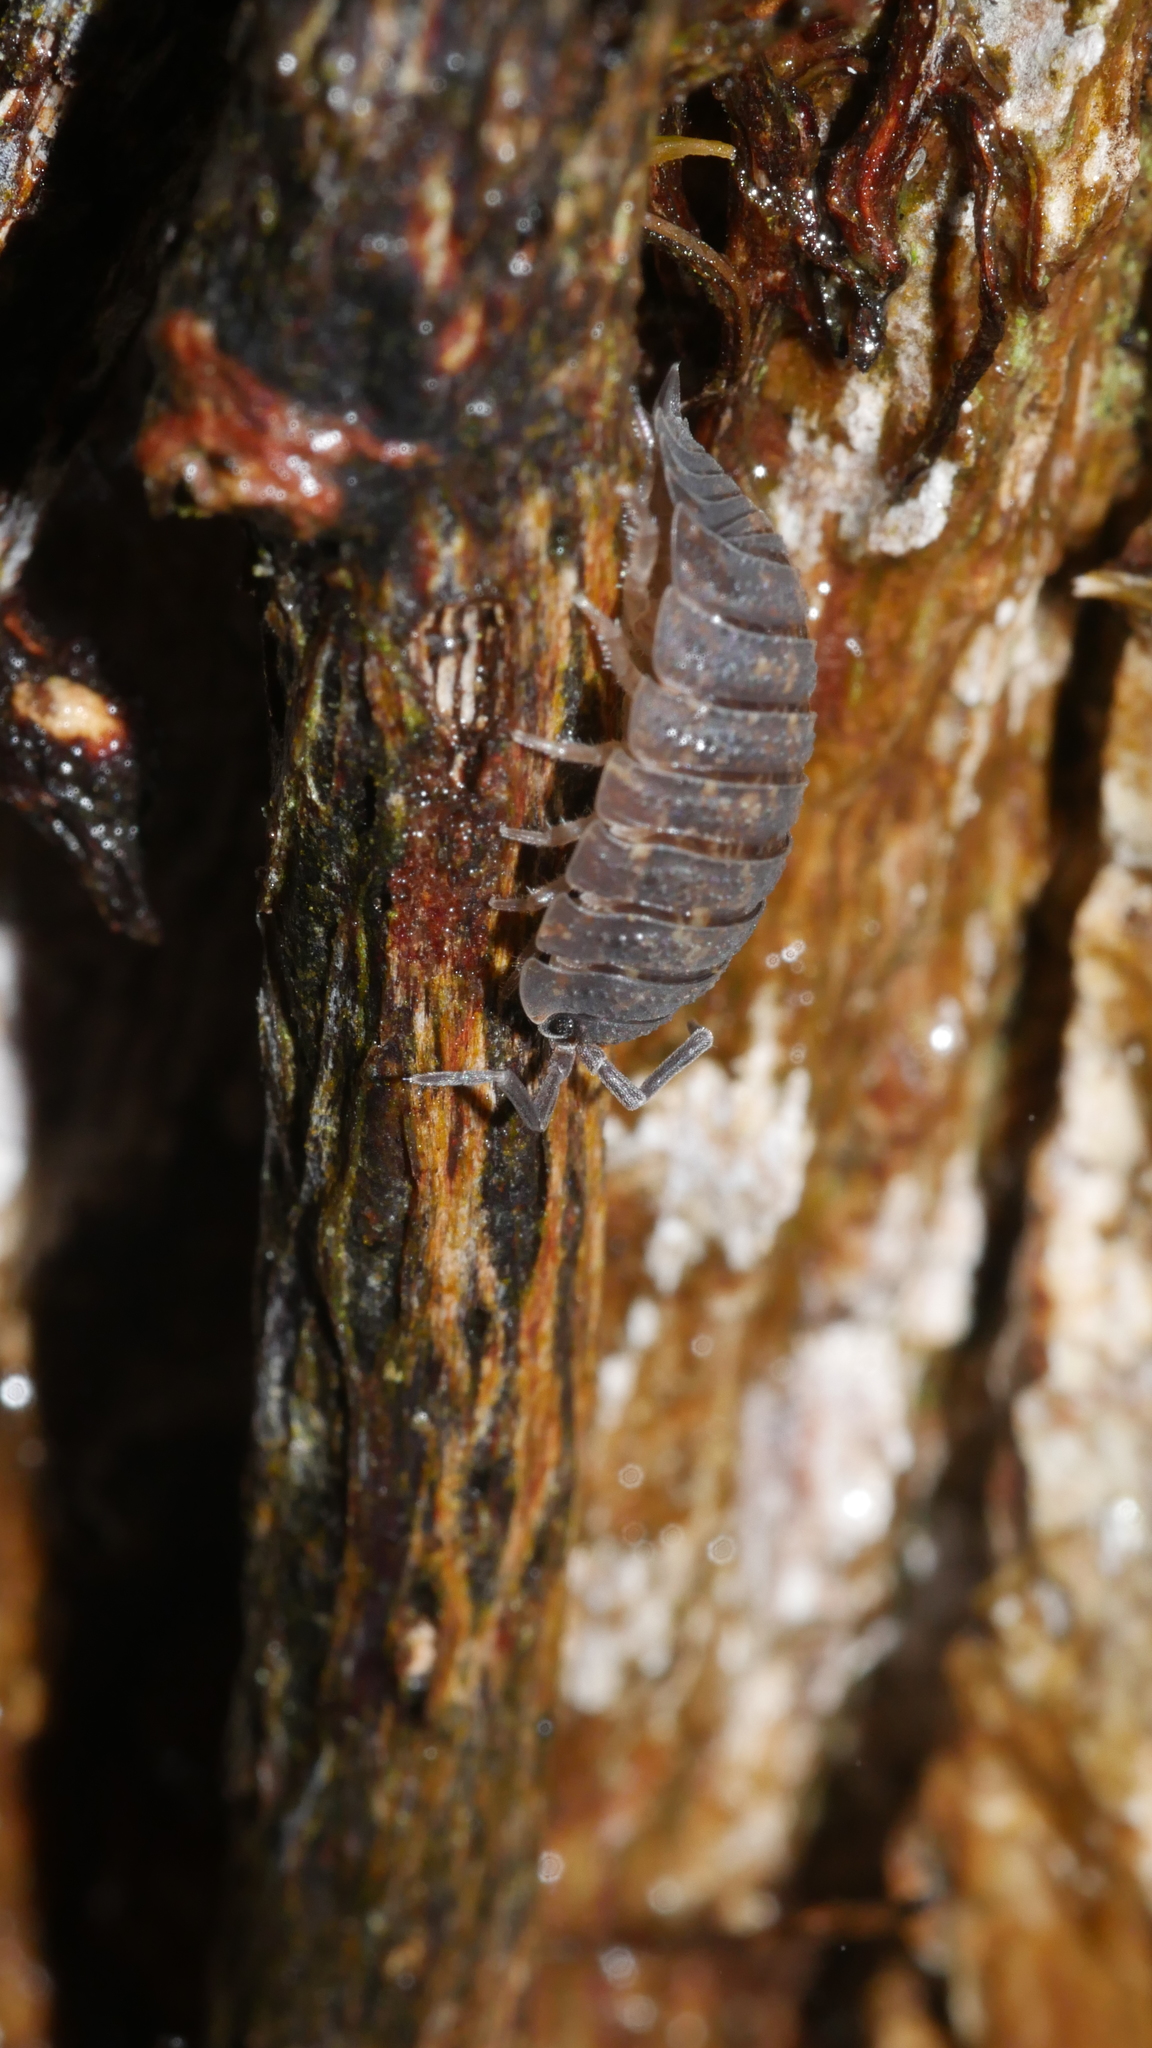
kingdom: Animalia
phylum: Arthropoda
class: Malacostraca
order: Isopoda
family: Porcellionidae
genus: Porcellio
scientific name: Porcellio scaber
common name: Common rough woodlouse
